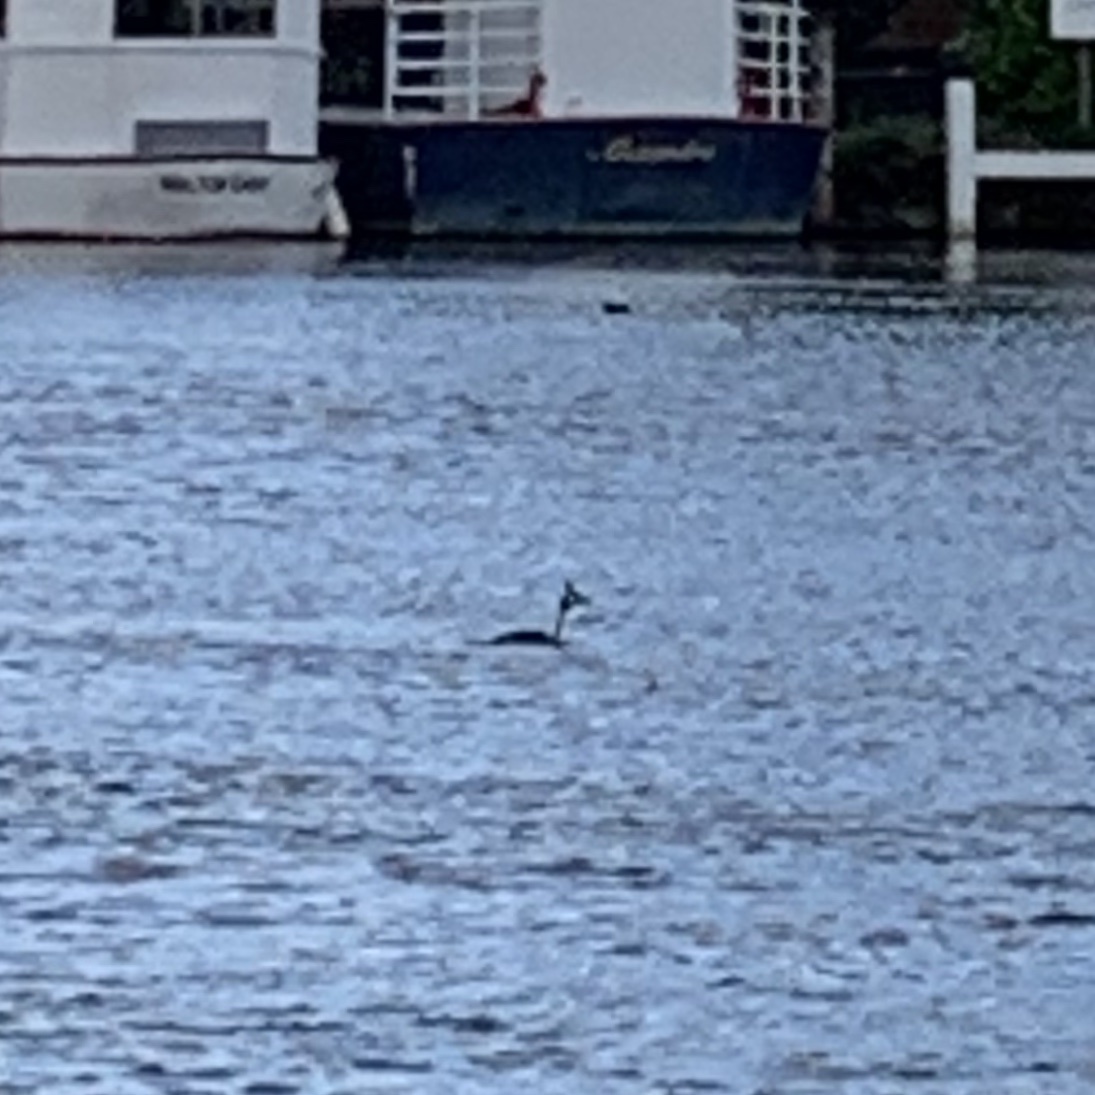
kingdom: Animalia
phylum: Chordata
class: Aves
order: Podicipediformes
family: Podicipedidae
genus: Podiceps
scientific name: Podiceps cristatus
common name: Great crested grebe
